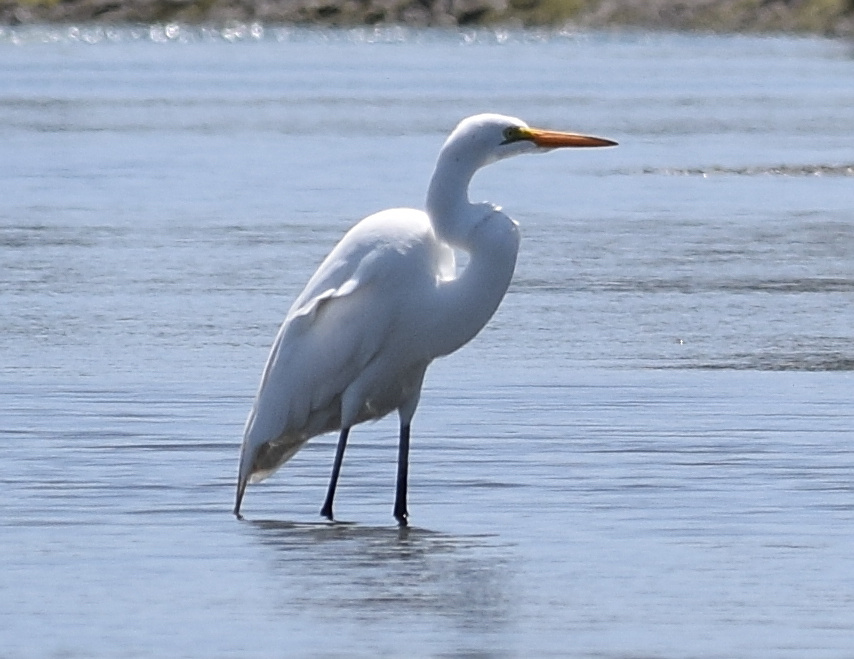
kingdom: Animalia
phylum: Chordata
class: Aves
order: Pelecaniformes
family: Ardeidae
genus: Ardea
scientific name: Ardea alba
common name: Great egret
